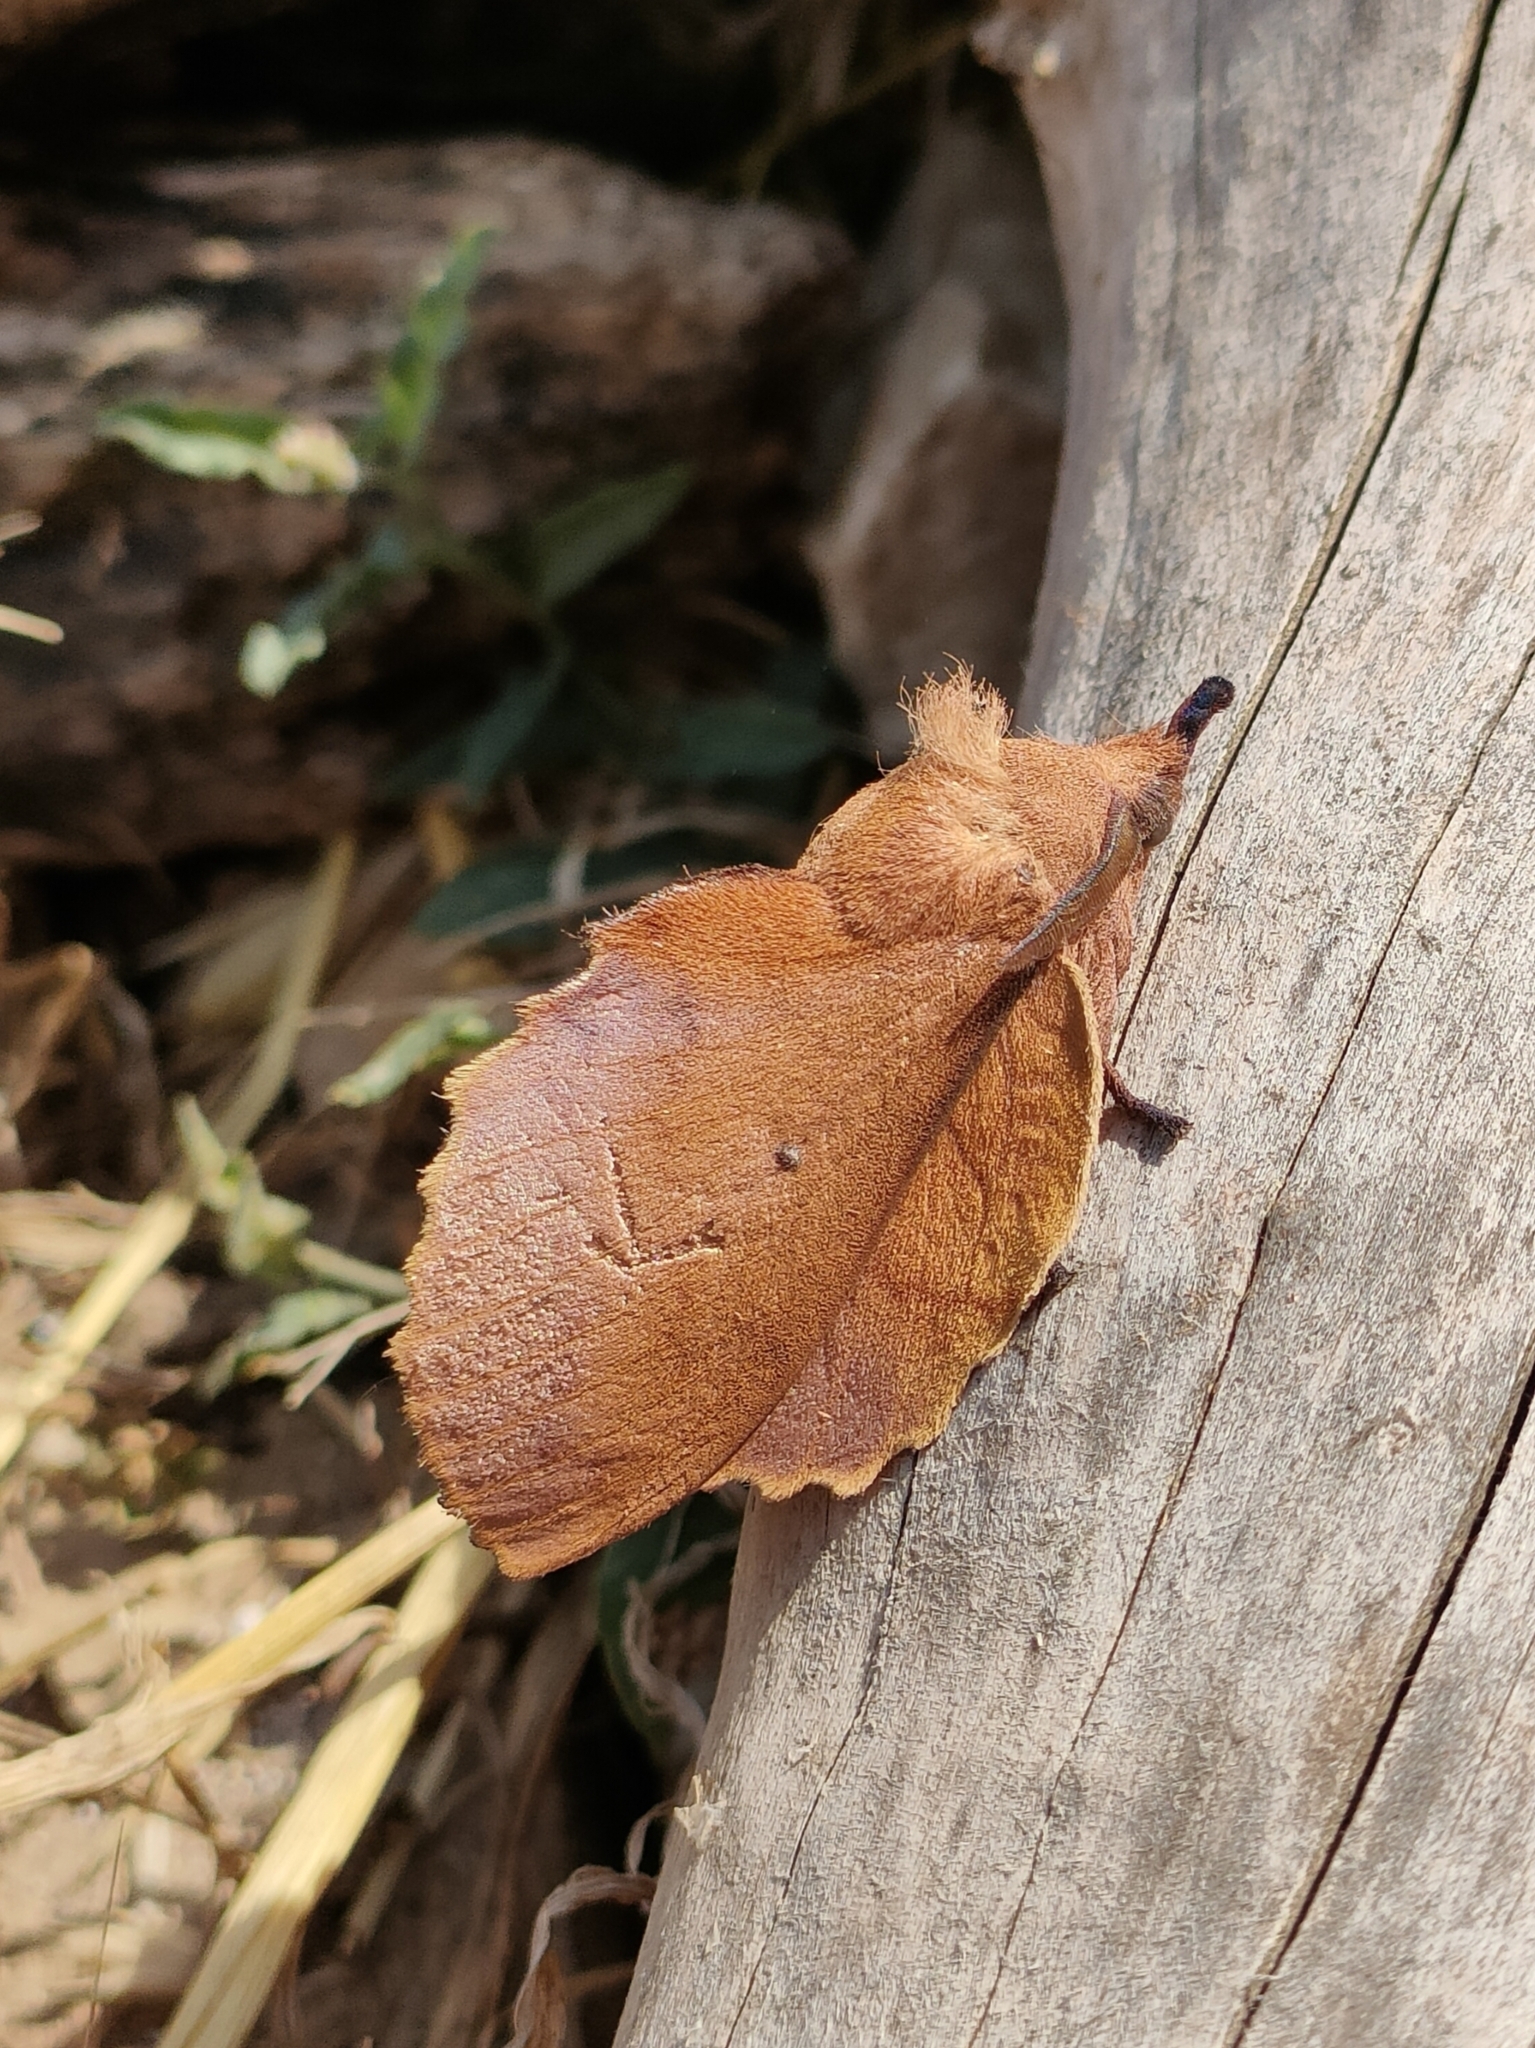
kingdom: Animalia
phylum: Arthropoda
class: Insecta
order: Lepidoptera
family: Lasiocampidae
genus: Gastropacha
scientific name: Gastropacha quercifolia
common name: Lappet
